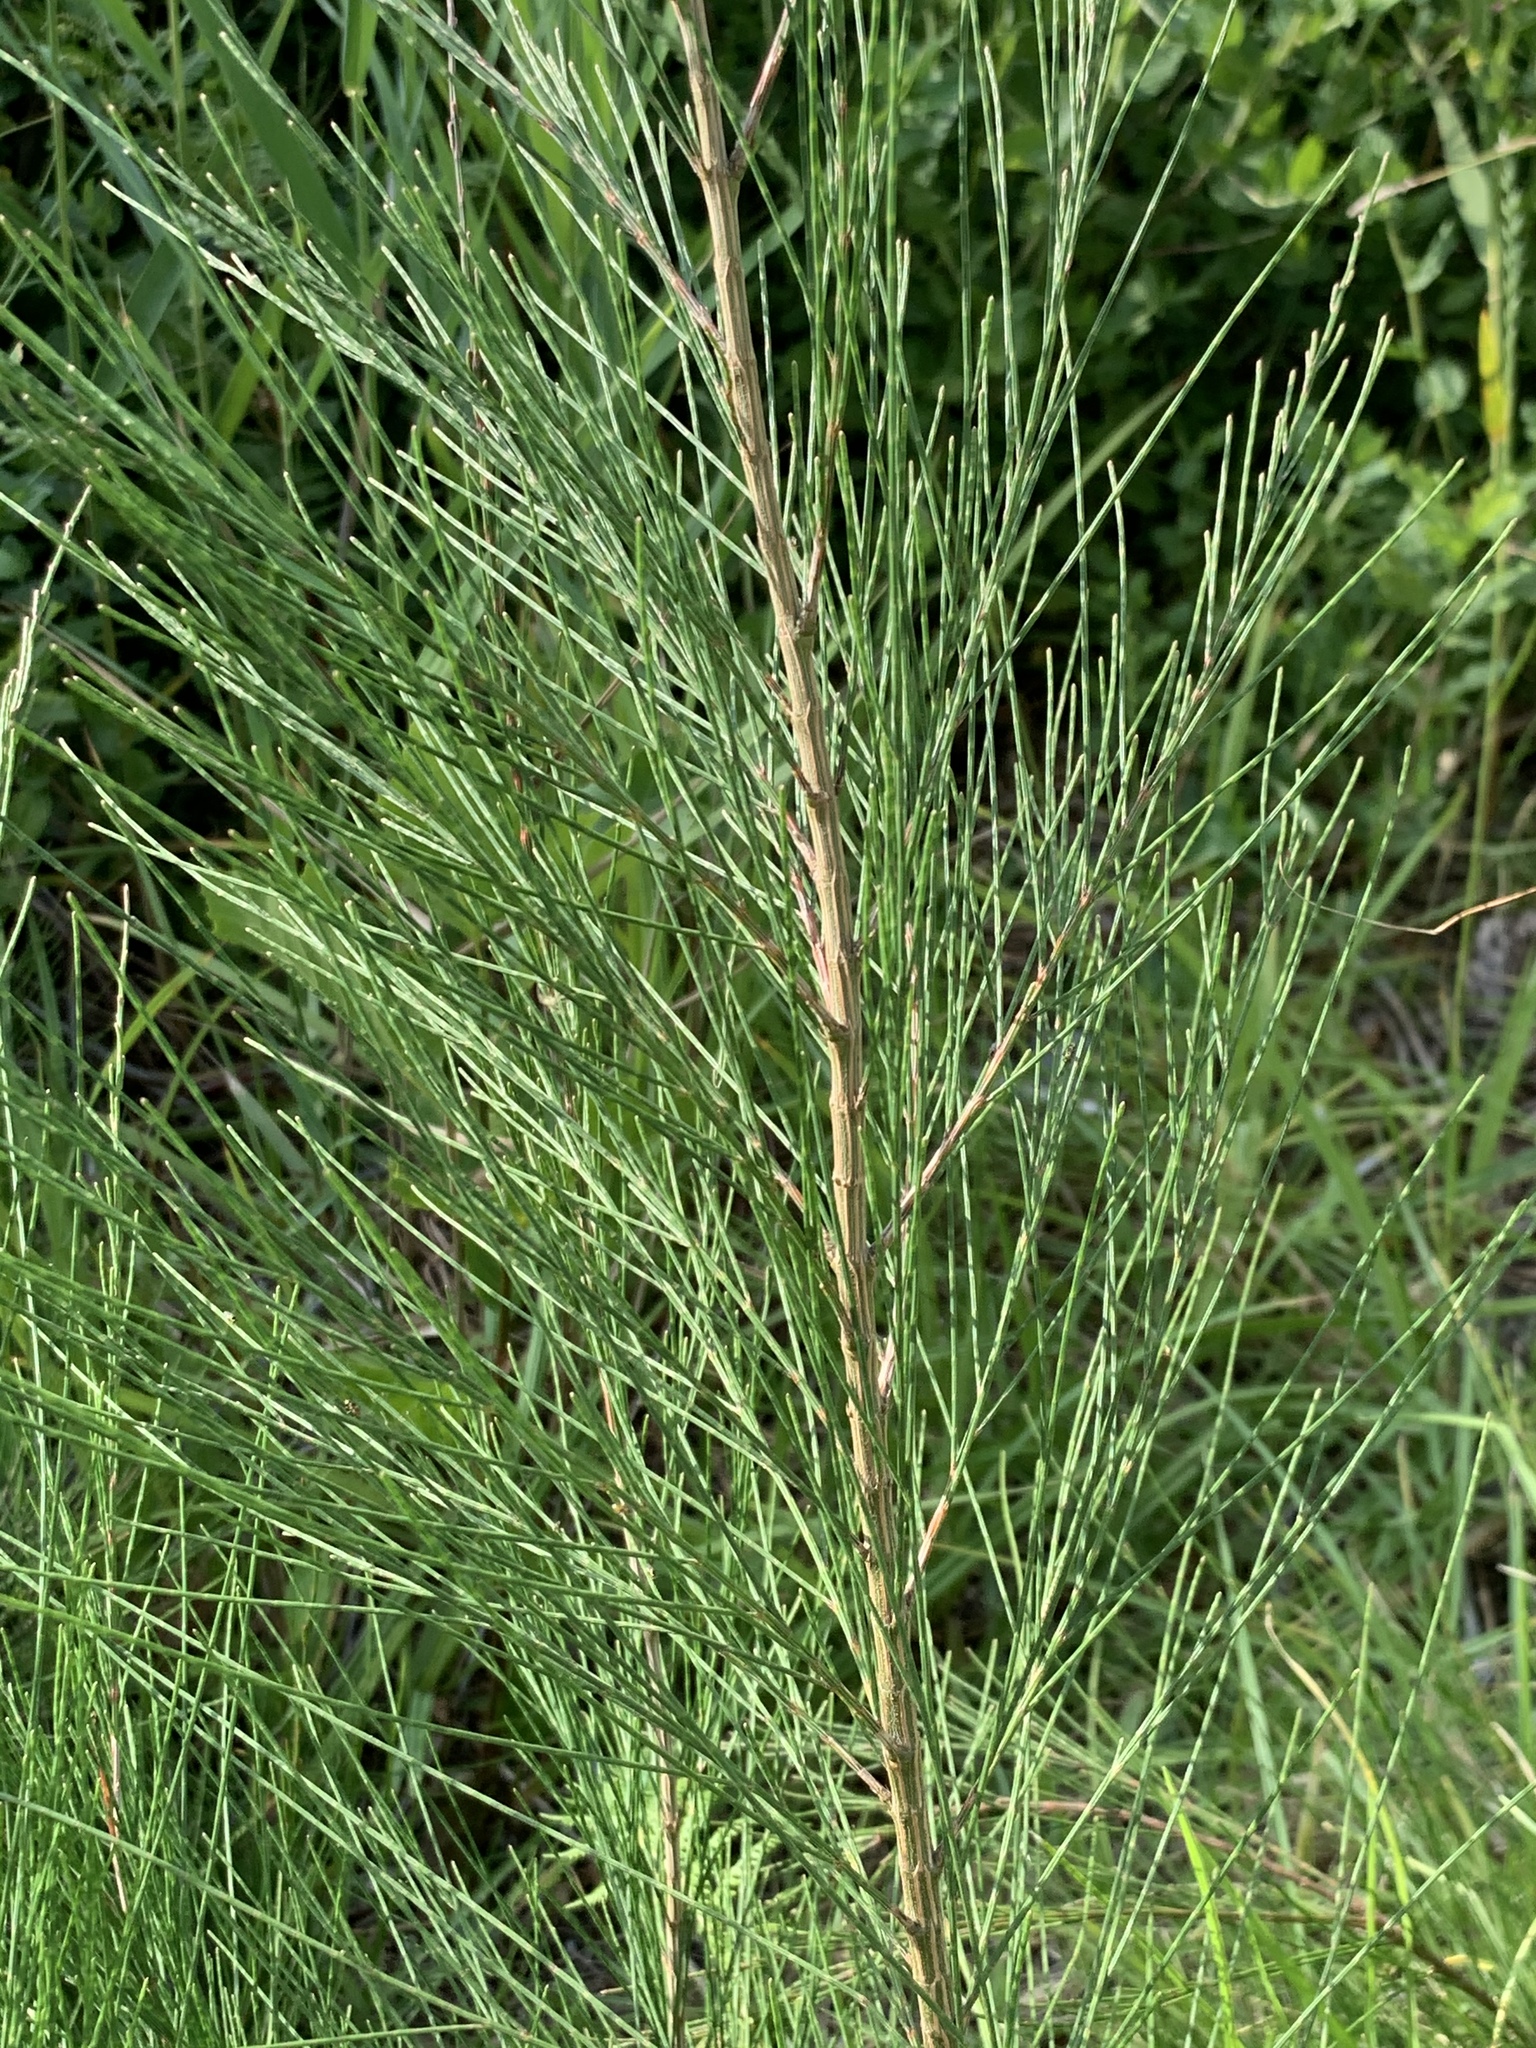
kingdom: Plantae
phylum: Tracheophyta
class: Magnoliopsida
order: Fagales
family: Casuarinaceae
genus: Casuarina
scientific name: Casuarina cunninghamiana
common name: River sheoak
